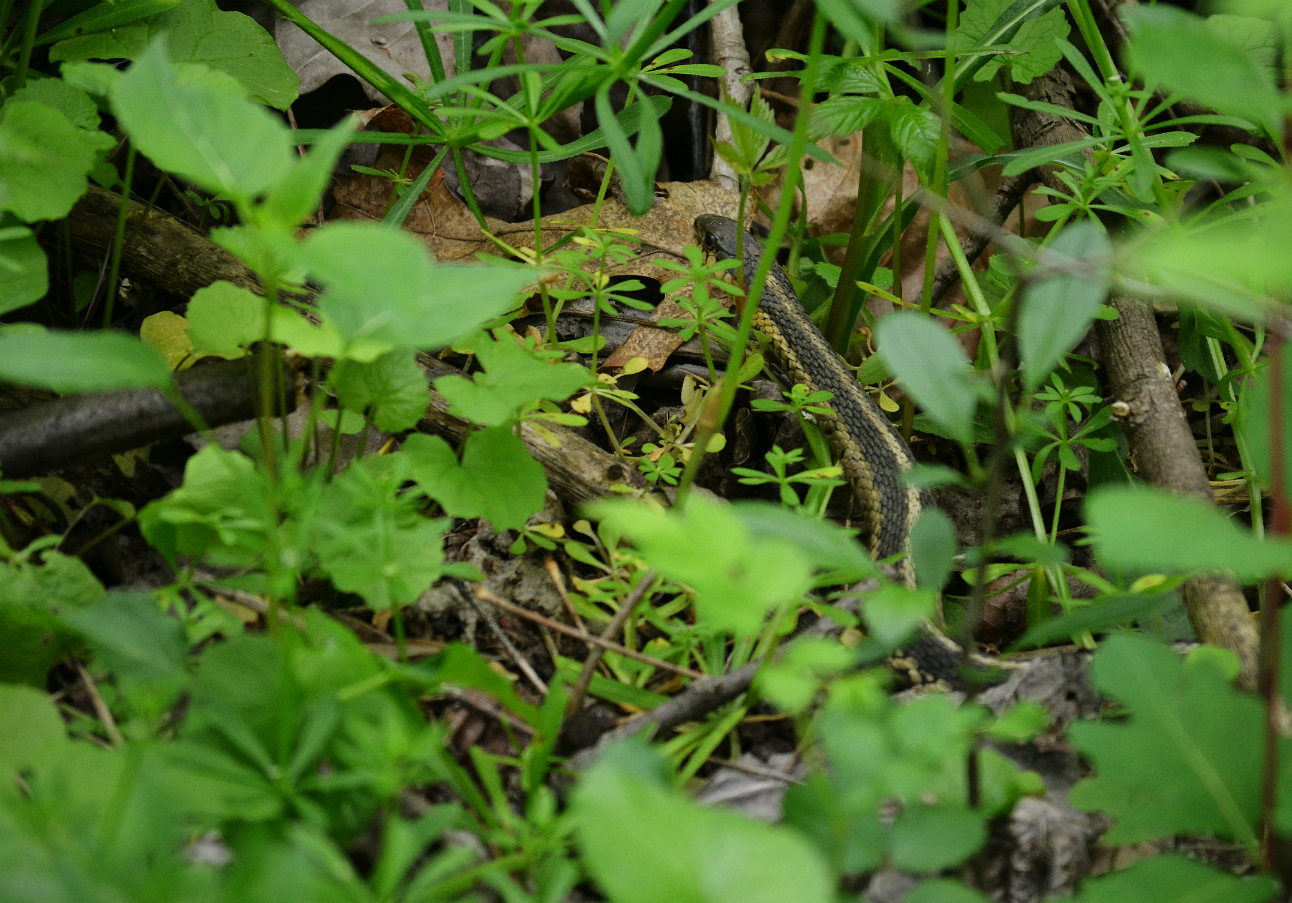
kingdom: Animalia
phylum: Chordata
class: Squamata
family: Colubridae
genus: Thamnophis
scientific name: Thamnophis sirtalis
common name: Common garter snake
